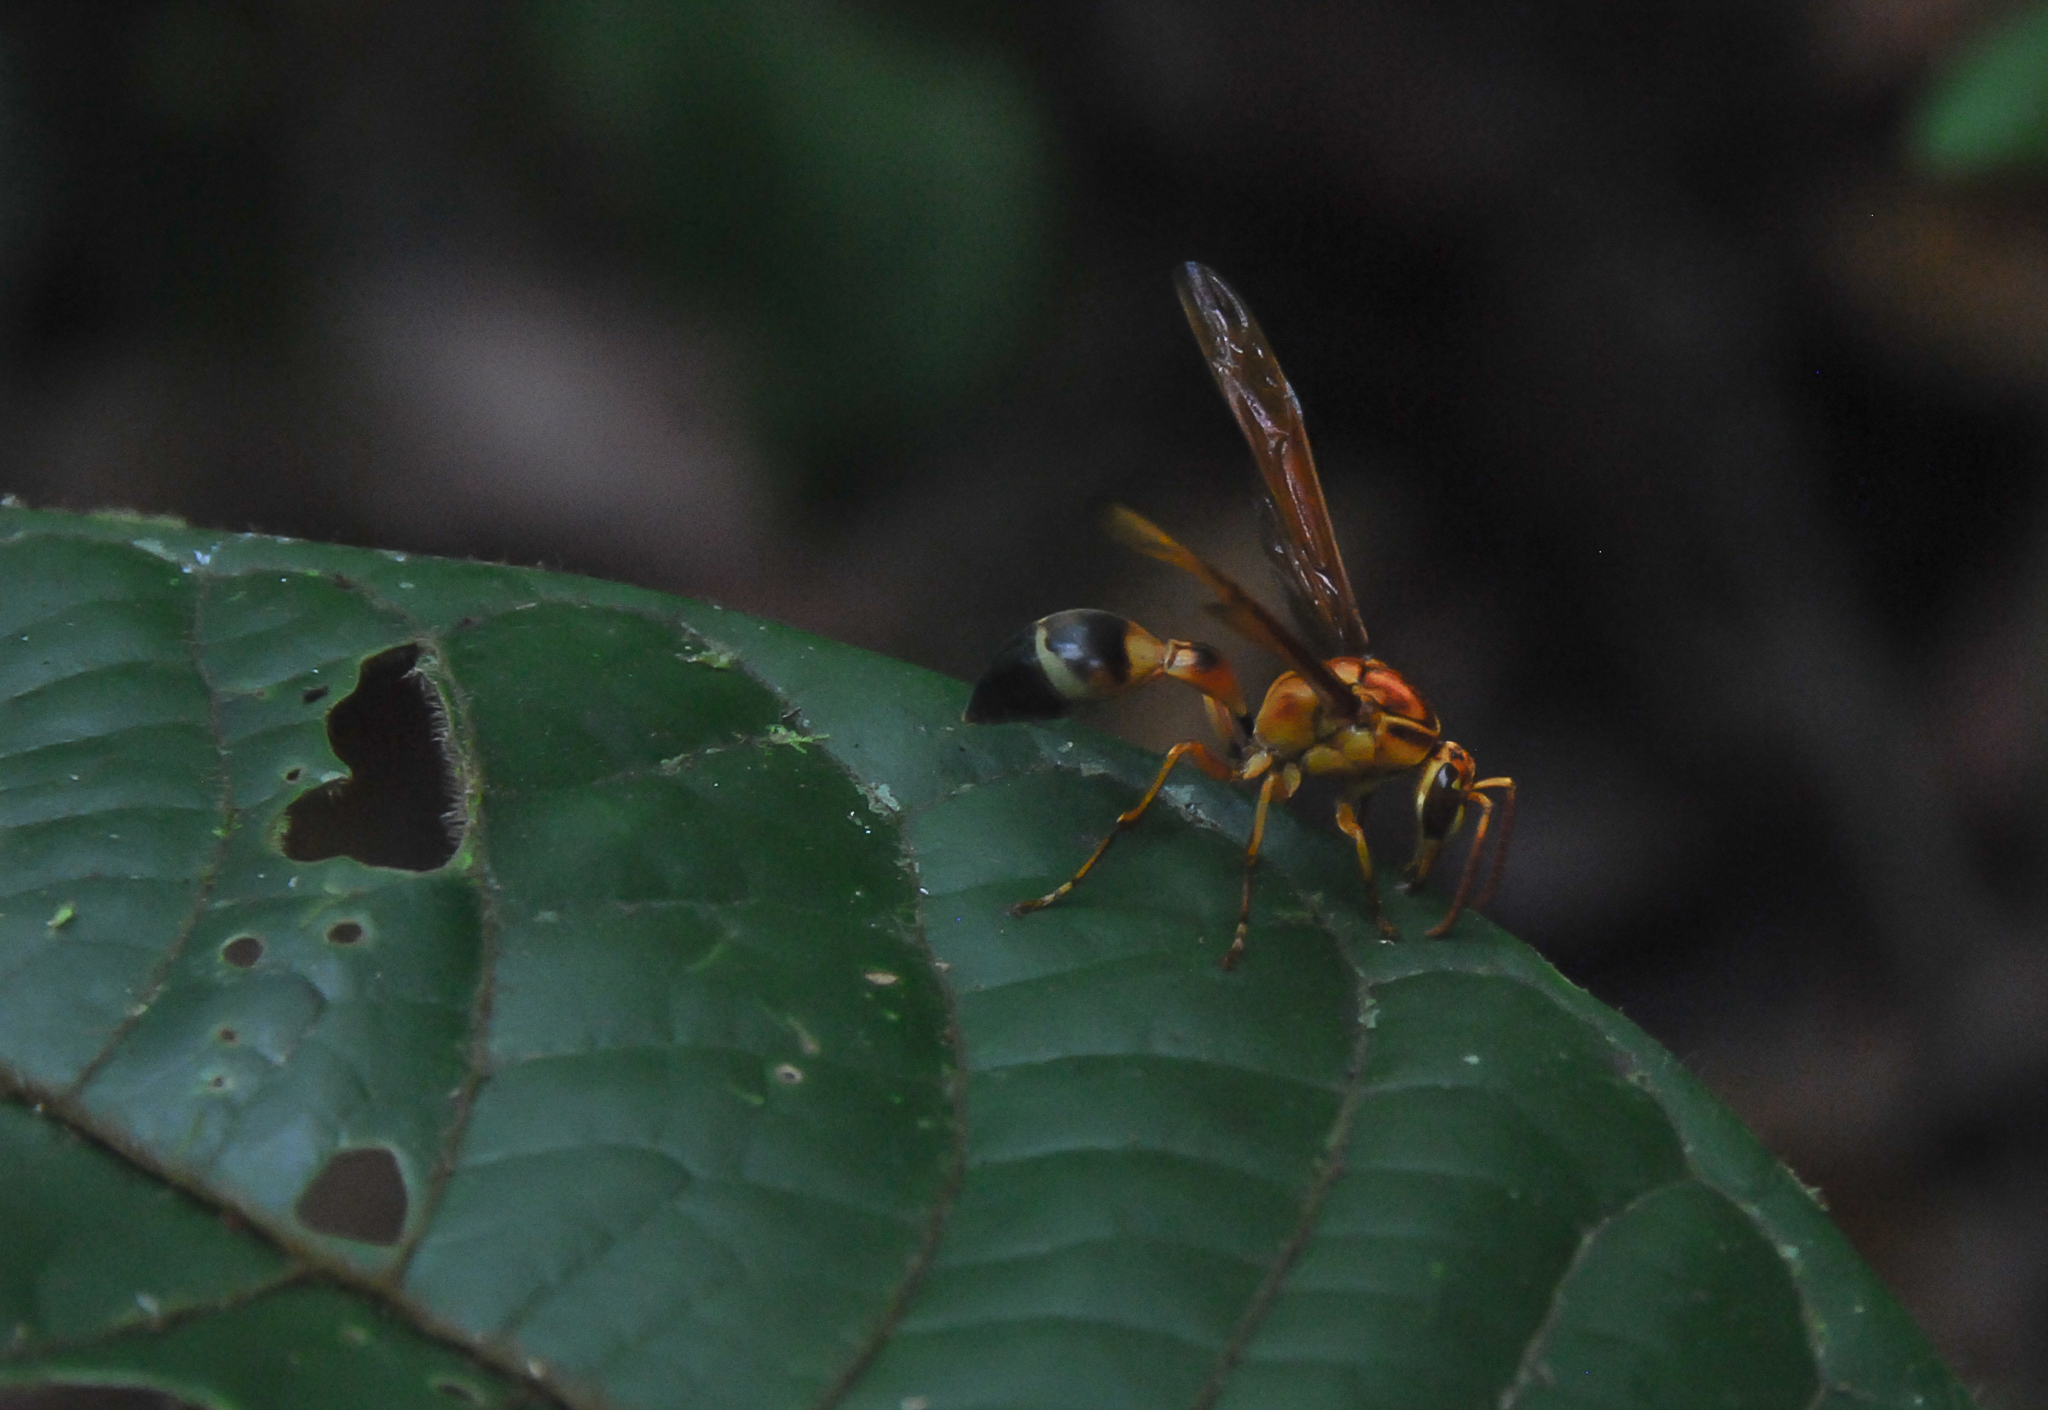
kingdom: Animalia
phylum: Arthropoda
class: Insecta
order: Hymenoptera
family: Eumenidae
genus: Pachymenes
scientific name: Pachymenes orellanae
